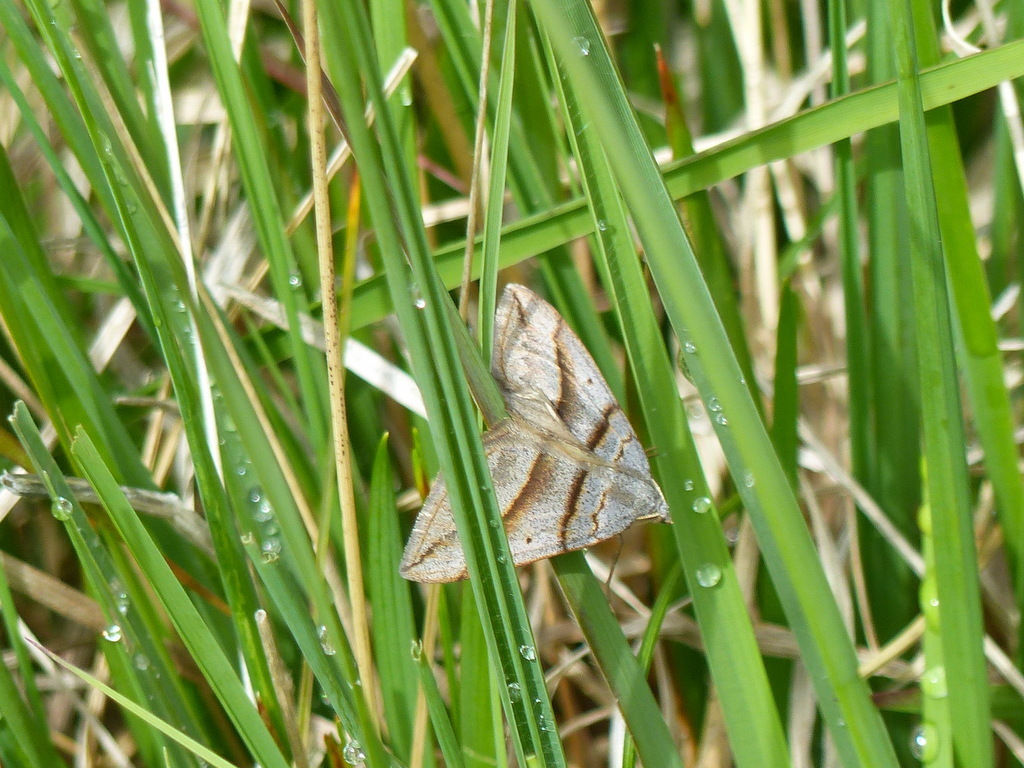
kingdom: Animalia
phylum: Arthropoda
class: Insecta
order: Lepidoptera
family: Geometridae
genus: Scotopteryx
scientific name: Scotopteryx luridata
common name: July belle
